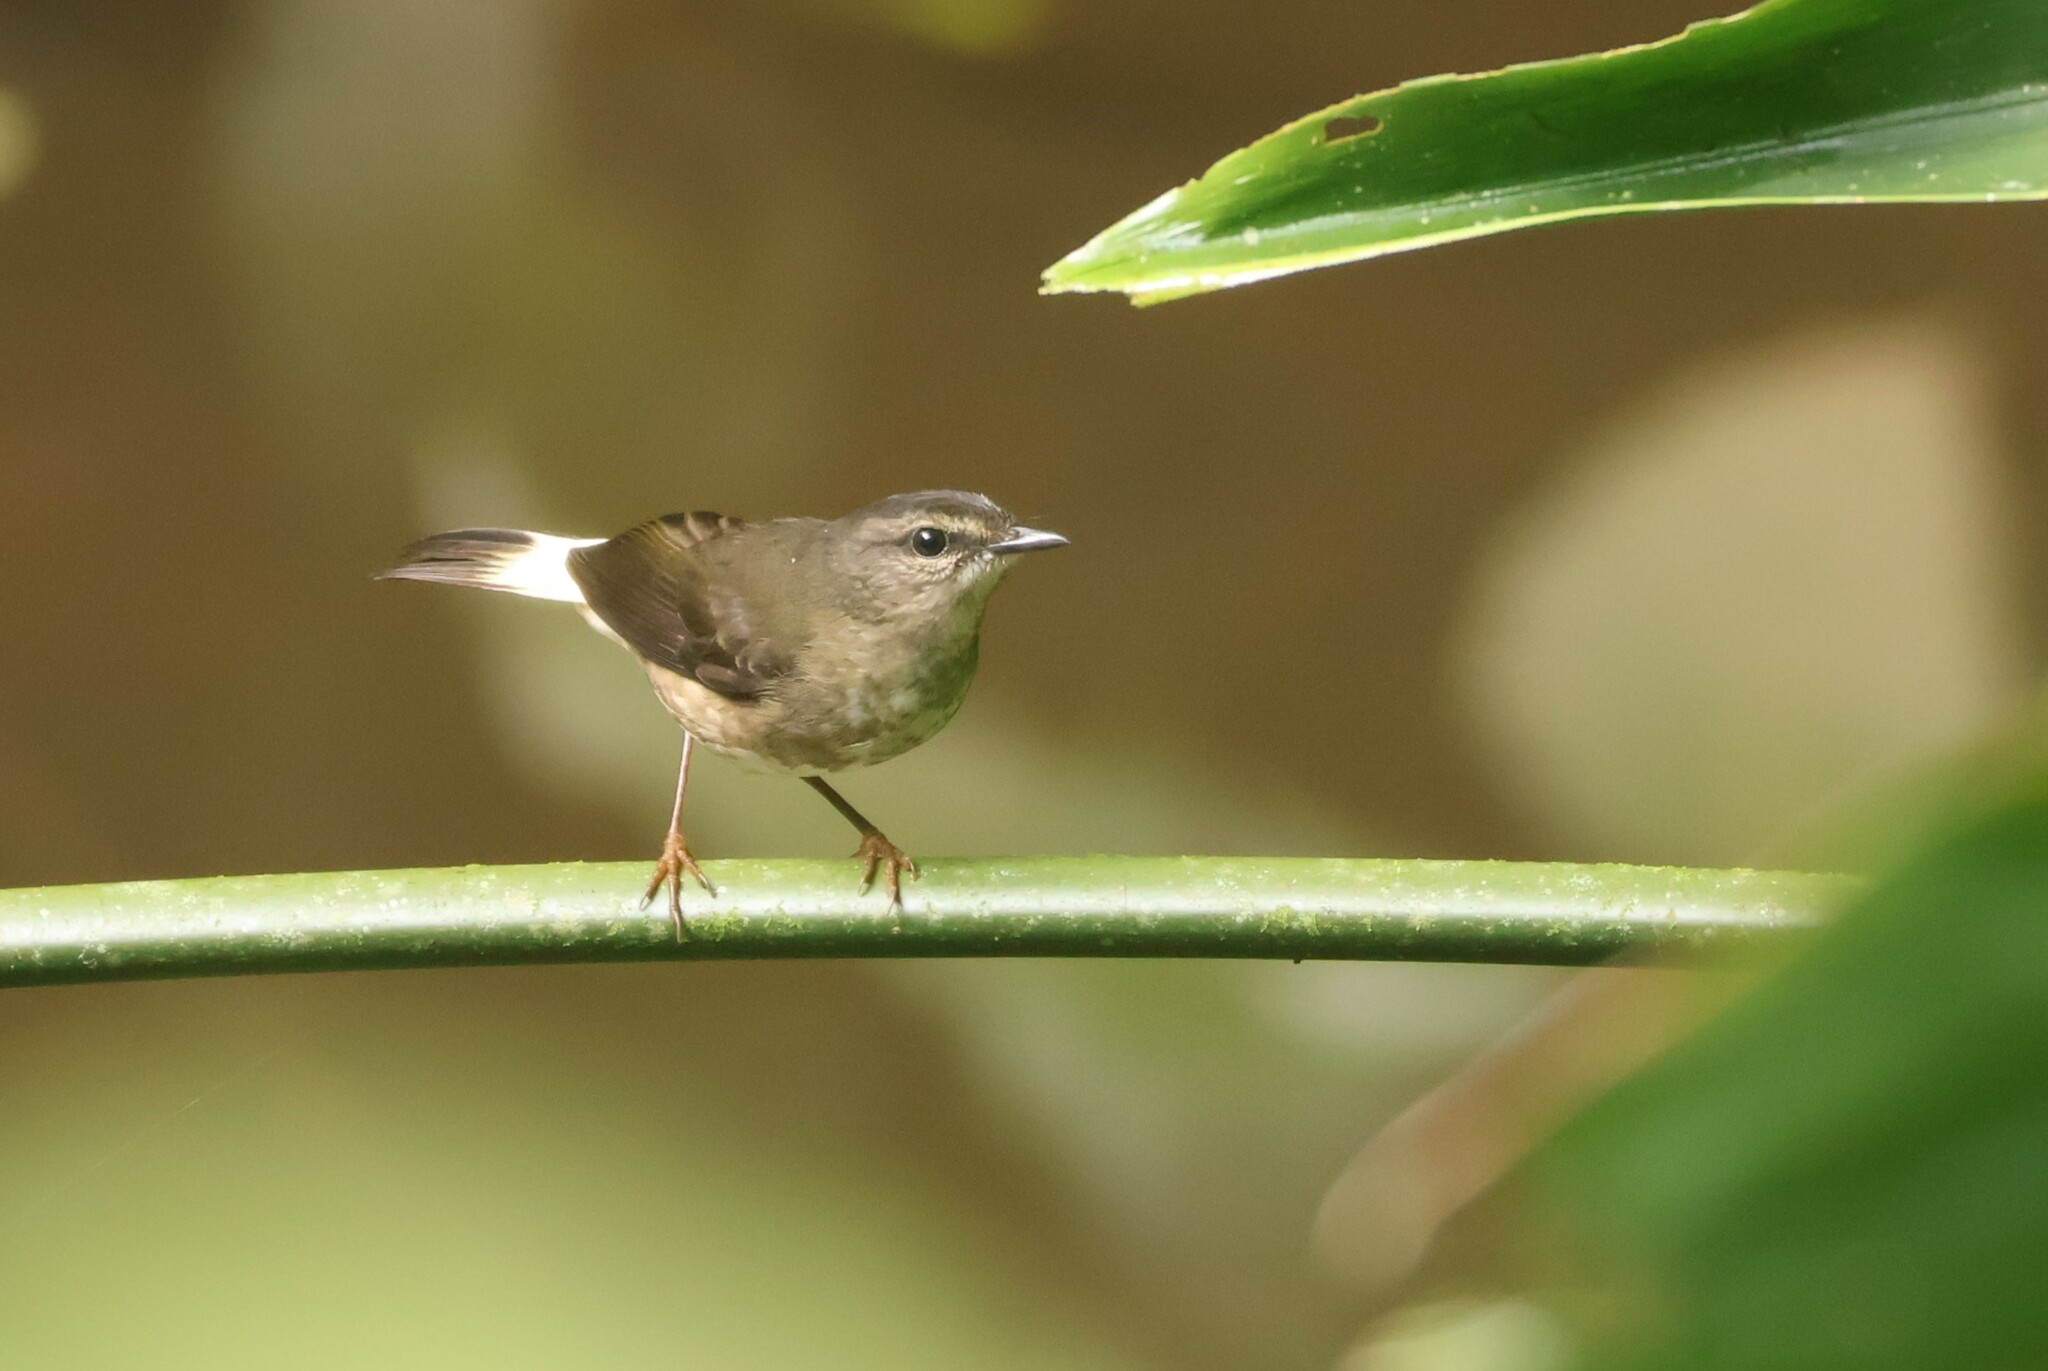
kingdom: Animalia
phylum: Chordata
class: Aves
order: Passeriformes
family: Parulidae
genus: Myiothlypis
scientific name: Myiothlypis fulvicauda
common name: Buff-rumped warbler
